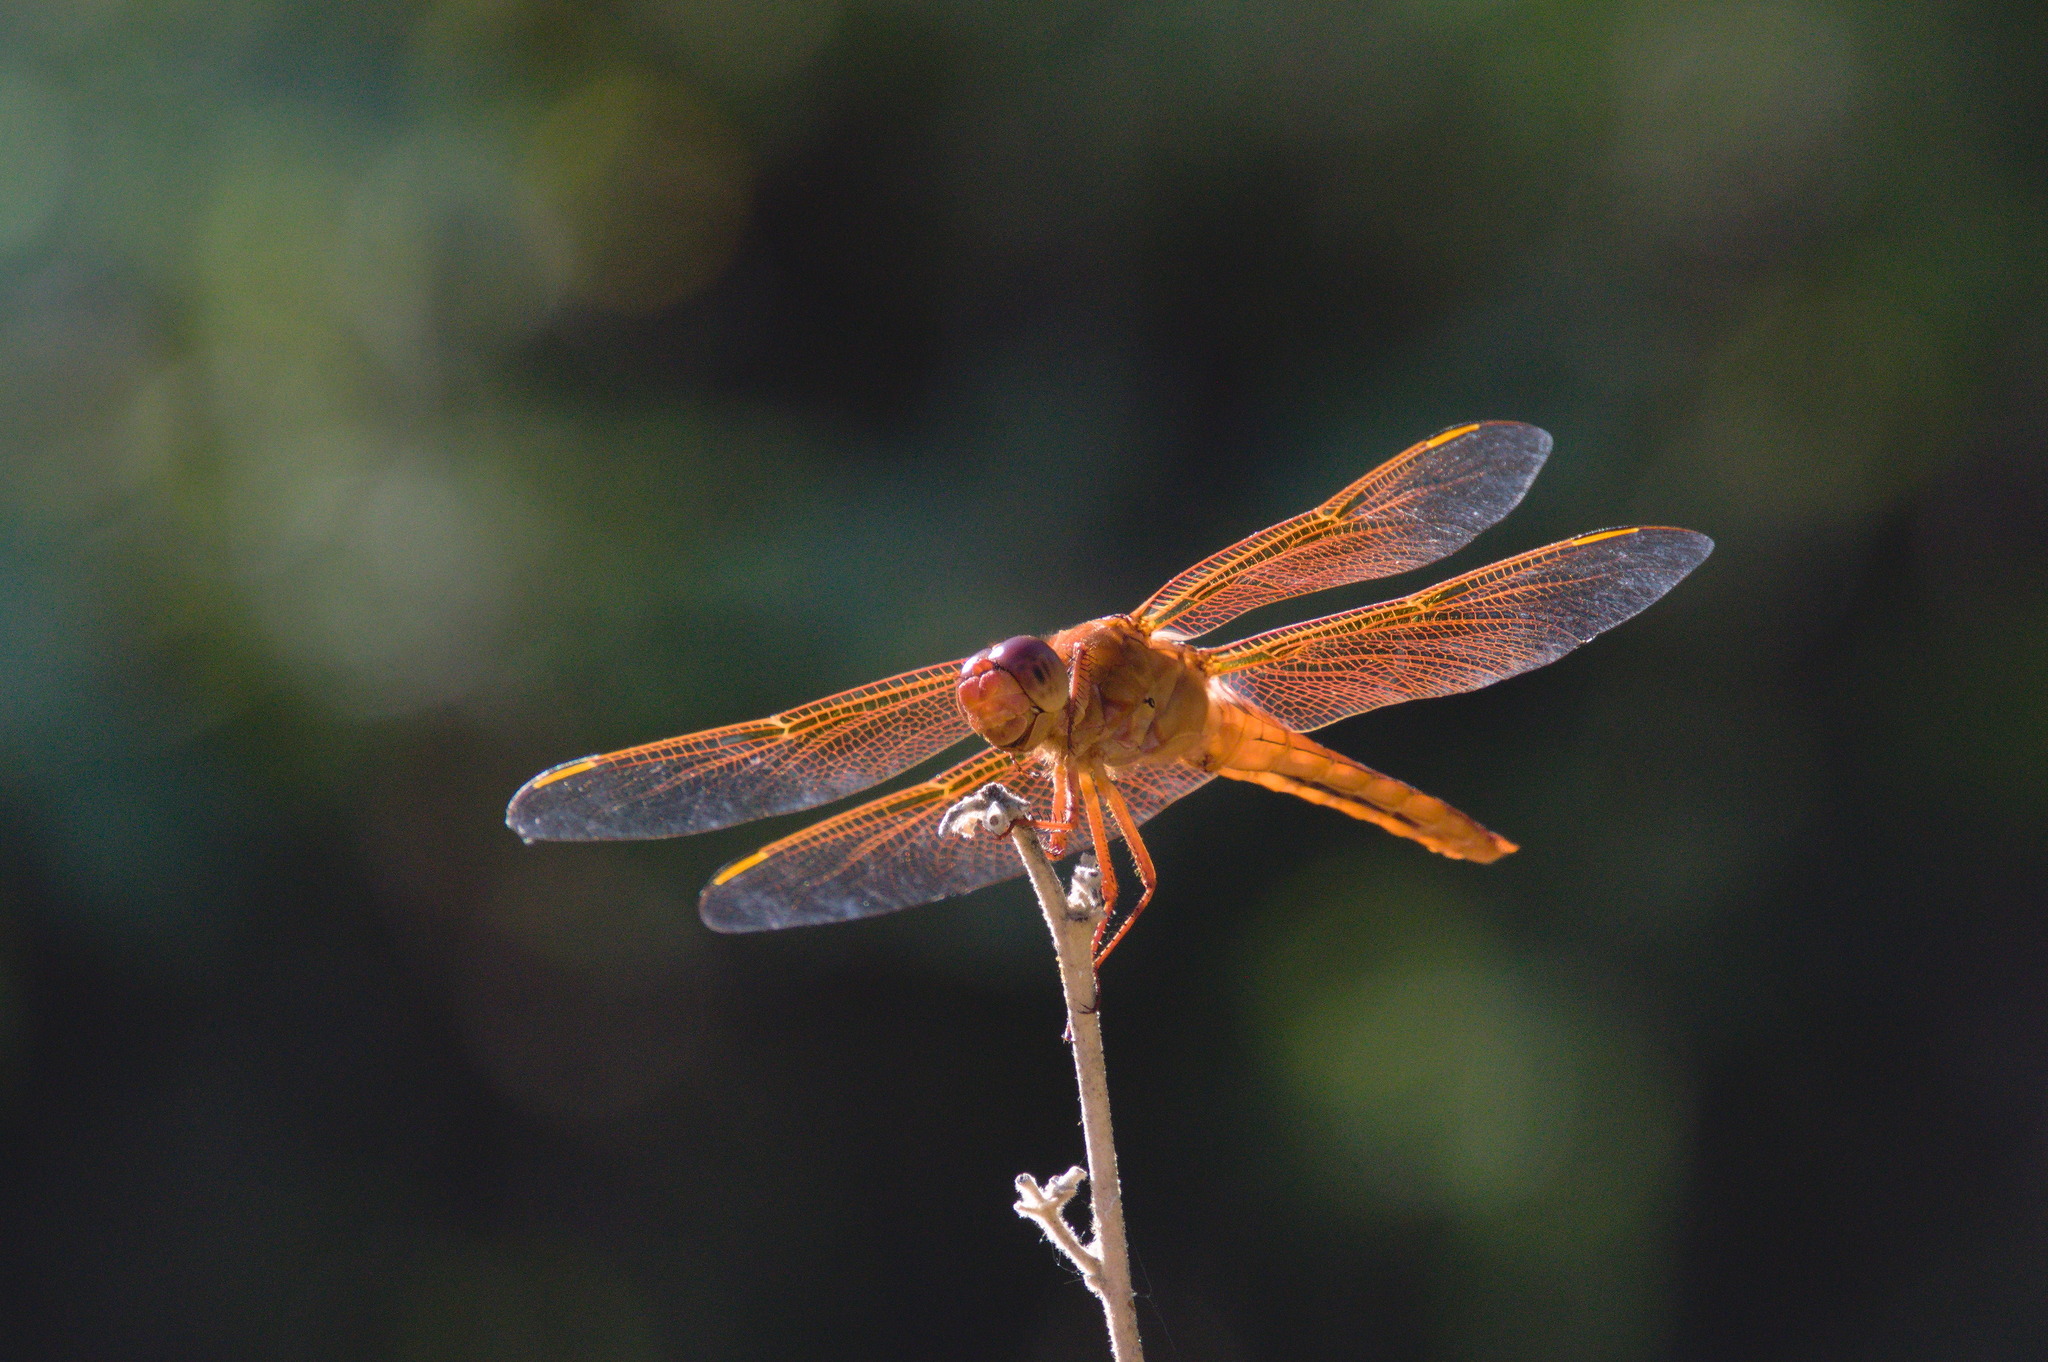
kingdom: Animalia
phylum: Arthropoda
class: Insecta
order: Odonata
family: Libellulidae
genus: Libellula
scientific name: Libellula saturata
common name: Flame skimmer
